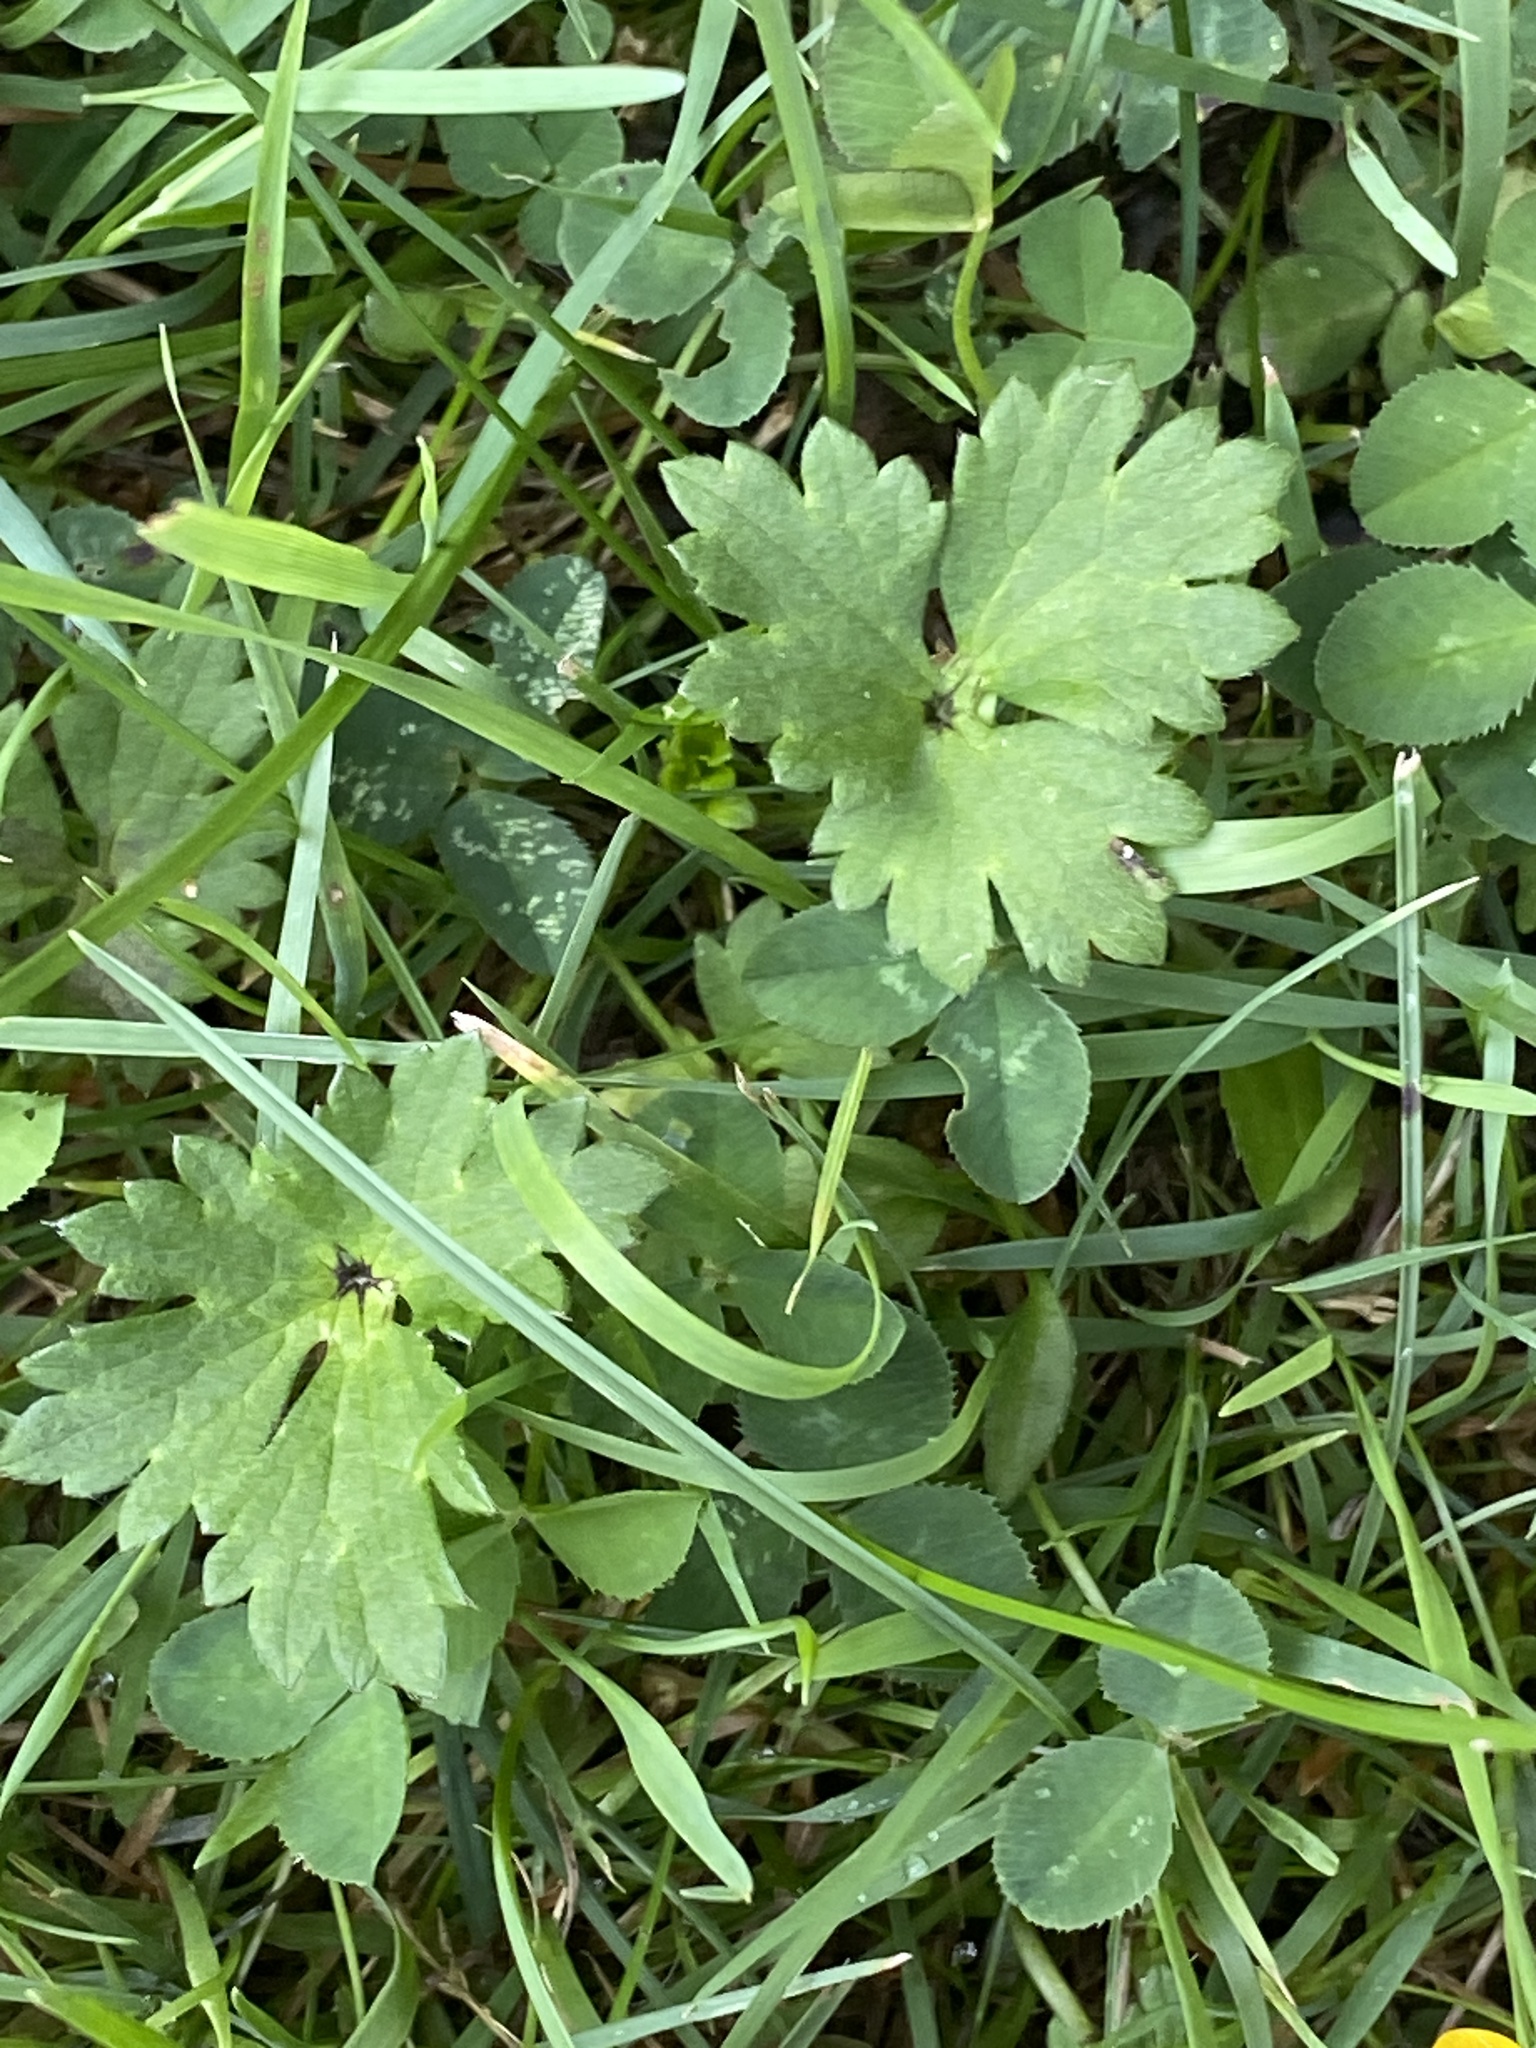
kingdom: Plantae
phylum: Tracheophyta
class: Magnoliopsida
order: Ranunculales
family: Ranunculaceae
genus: Ranunculus
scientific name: Ranunculus repens
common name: Creeping buttercup
